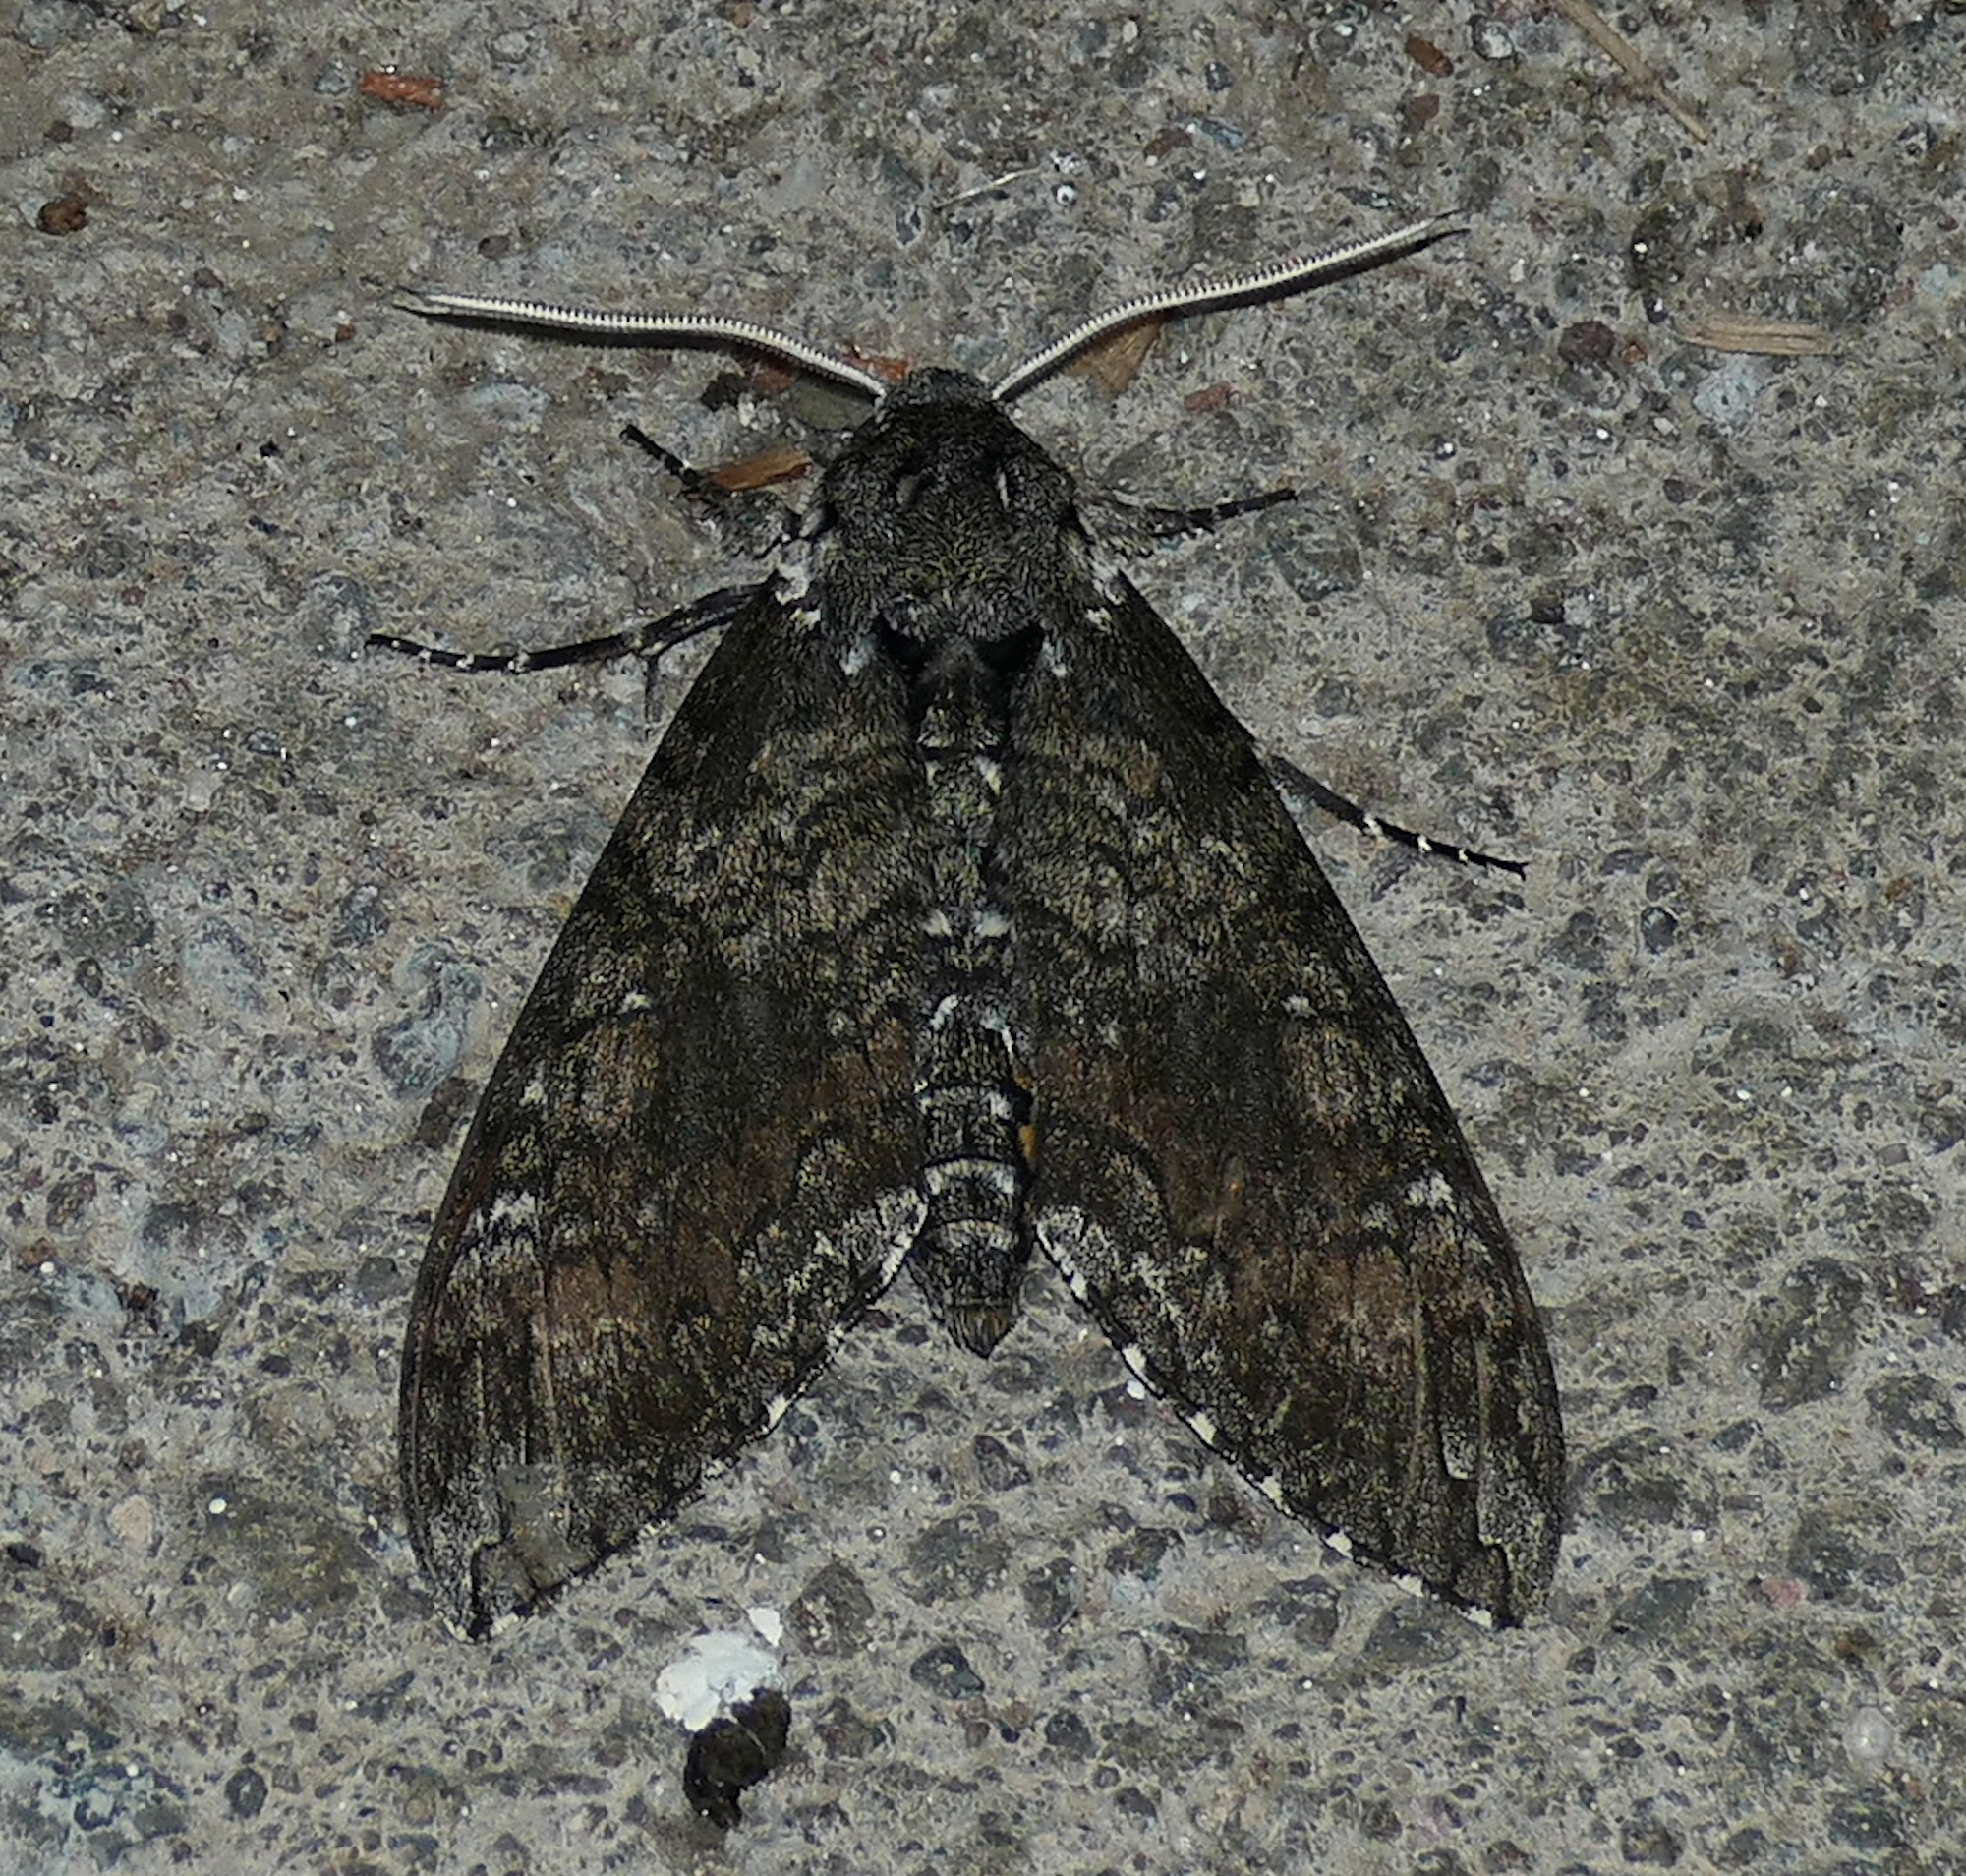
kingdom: Animalia
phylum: Arthropoda
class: Insecta
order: Lepidoptera
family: Sphingidae
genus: Manduca
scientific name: Manduca sexta
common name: Carolina sphinx
